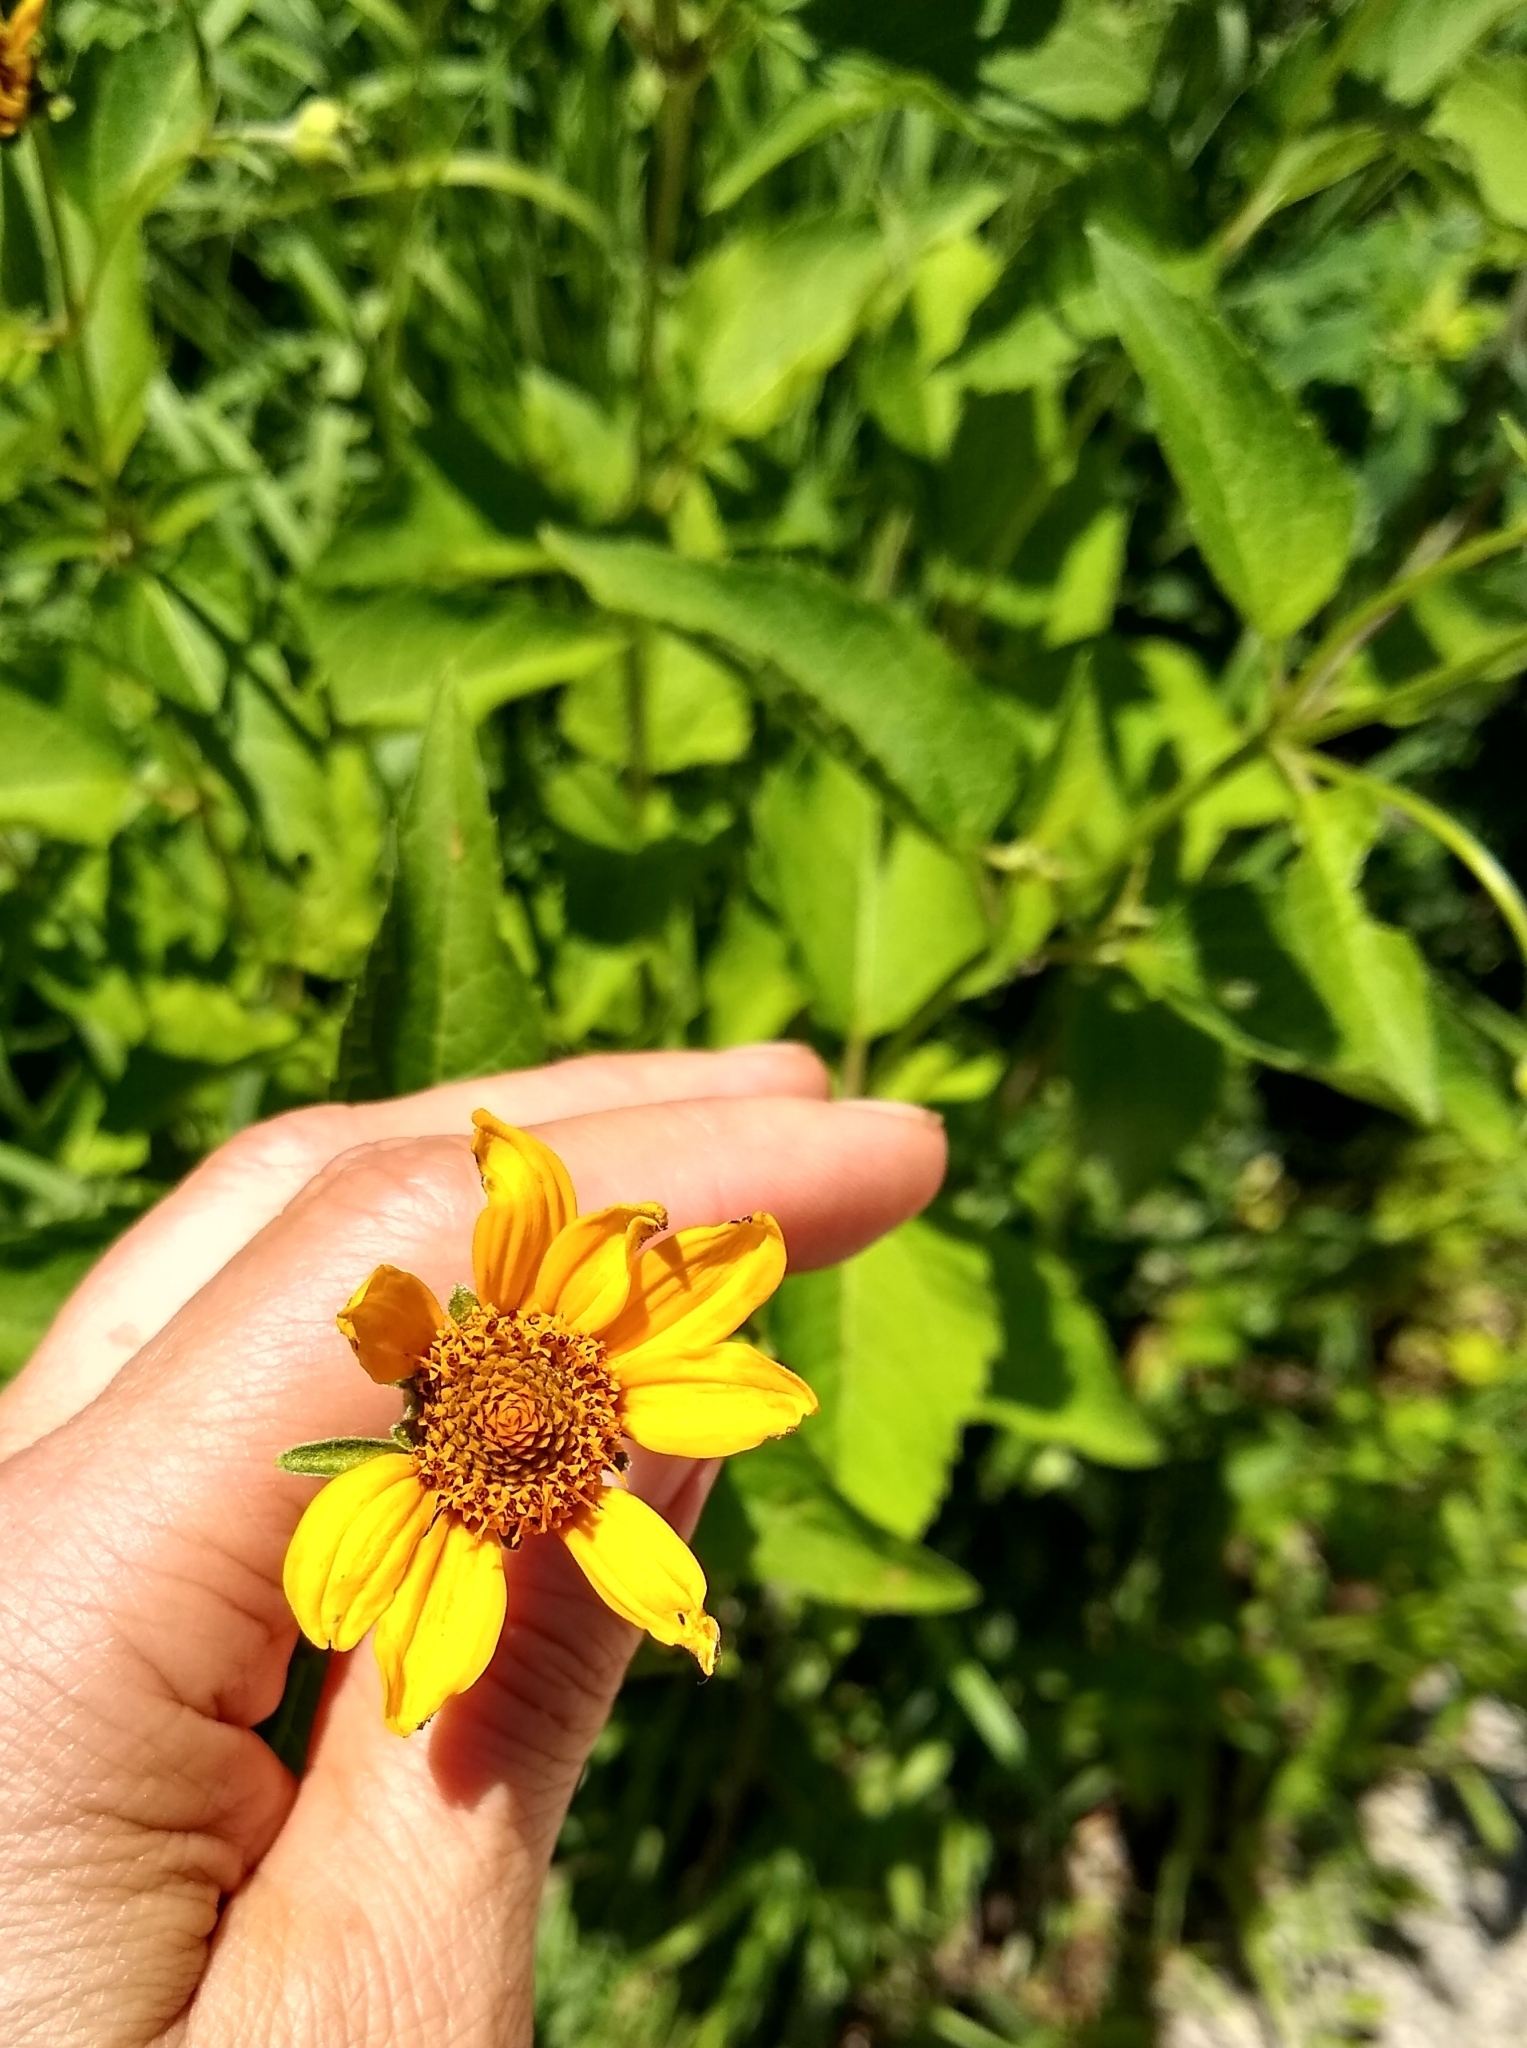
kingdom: Plantae
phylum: Tracheophyta
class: Magnoliopsida
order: Asterales
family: Asteraceae
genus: Heliopsis
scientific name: Heliopsis helianthoides
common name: False sunflower
